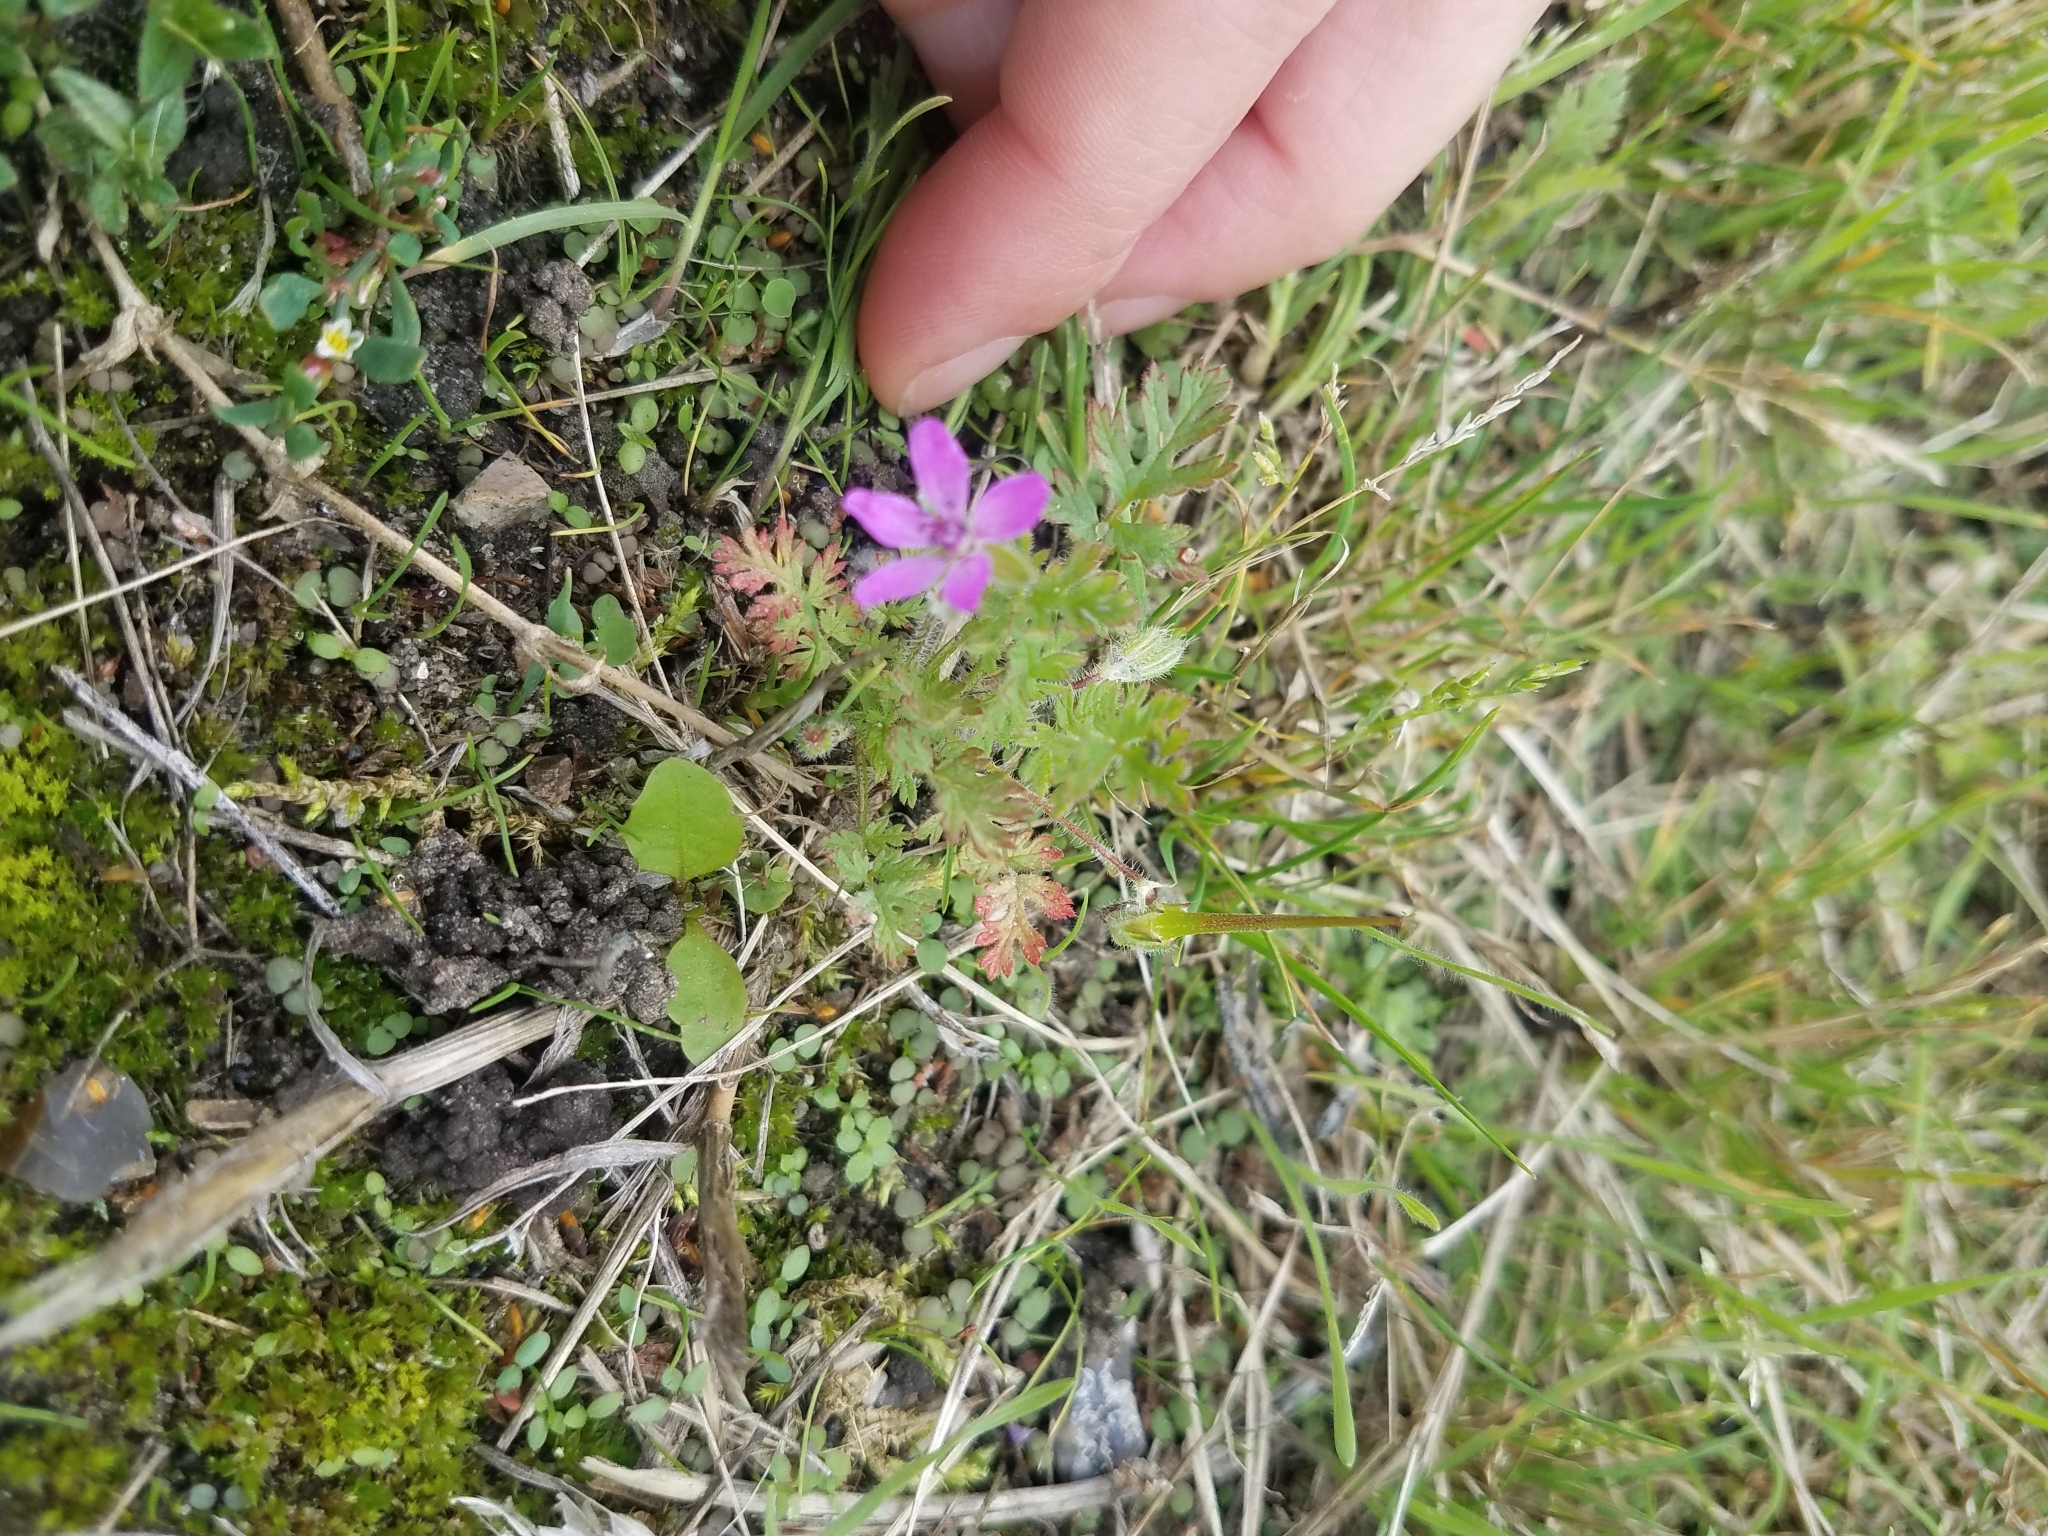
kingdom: Plantae
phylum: Tracheophyta
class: Magnoliopsida
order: Geraniales
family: Geraniaceae
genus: Erodium
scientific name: Erodium cicutarium
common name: Common stork's-bill
